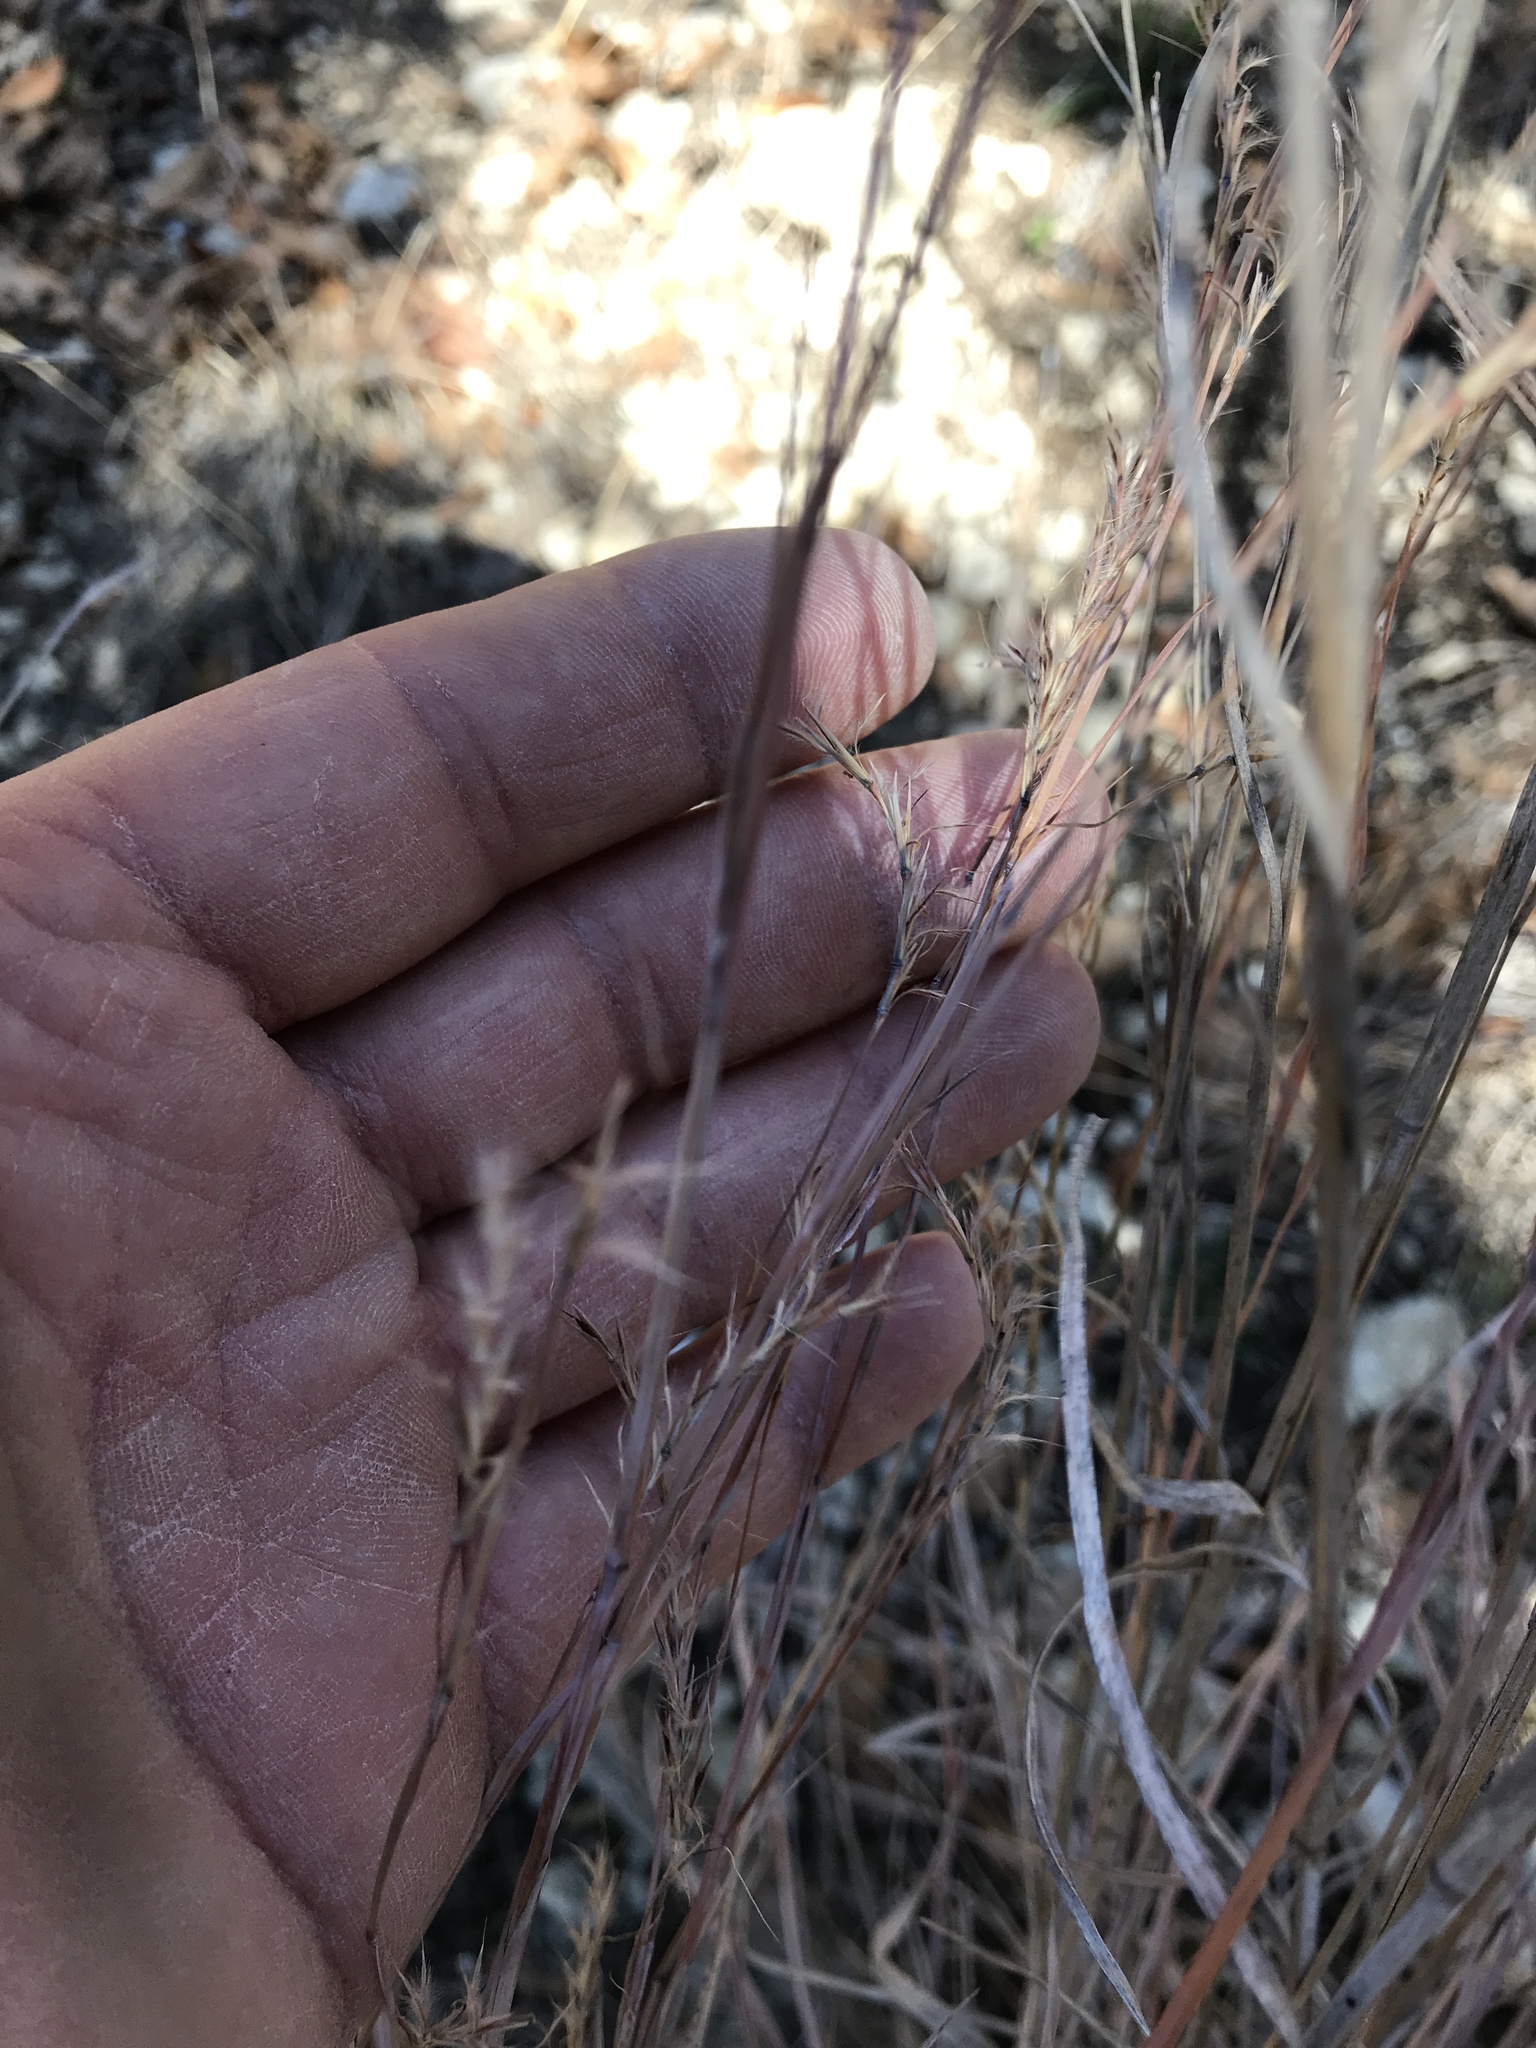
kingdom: Plantae
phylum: Tracheophyta
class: Liliopsida
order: Poales
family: Poaceae
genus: Schizachyrium
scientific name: Schizachyrium scoparium
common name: Little bluestem
